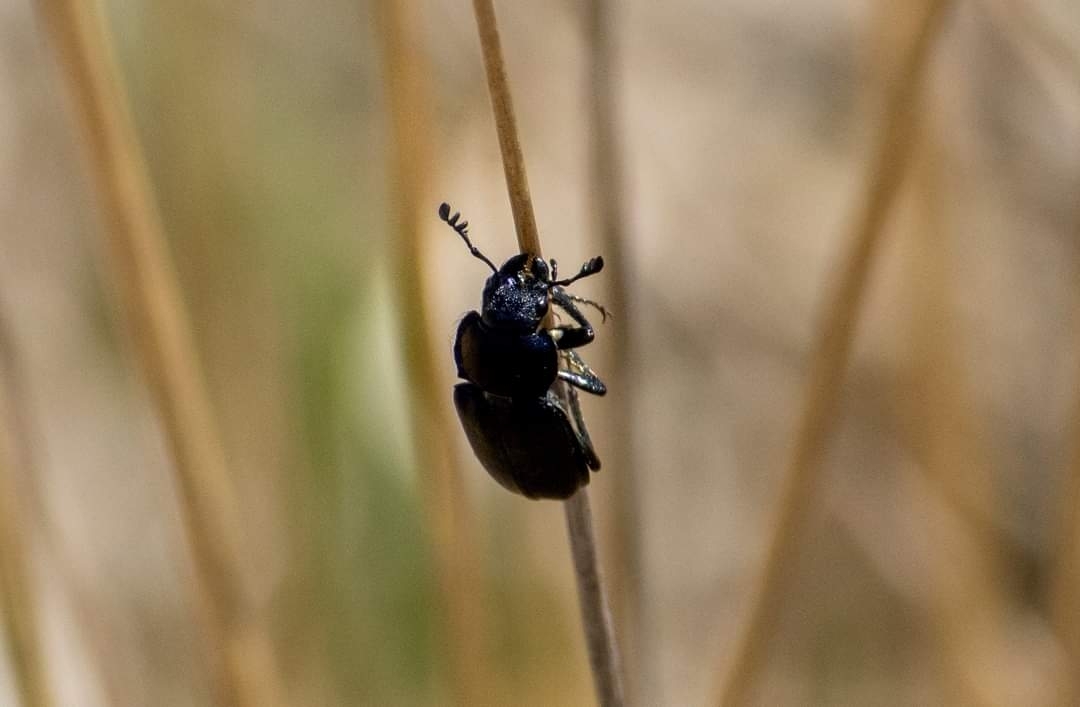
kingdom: Animalia
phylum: Arthropoda
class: Insecta
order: Coleoptera
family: Lucanidae
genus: Platycerus
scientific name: Platycerus caraboides
